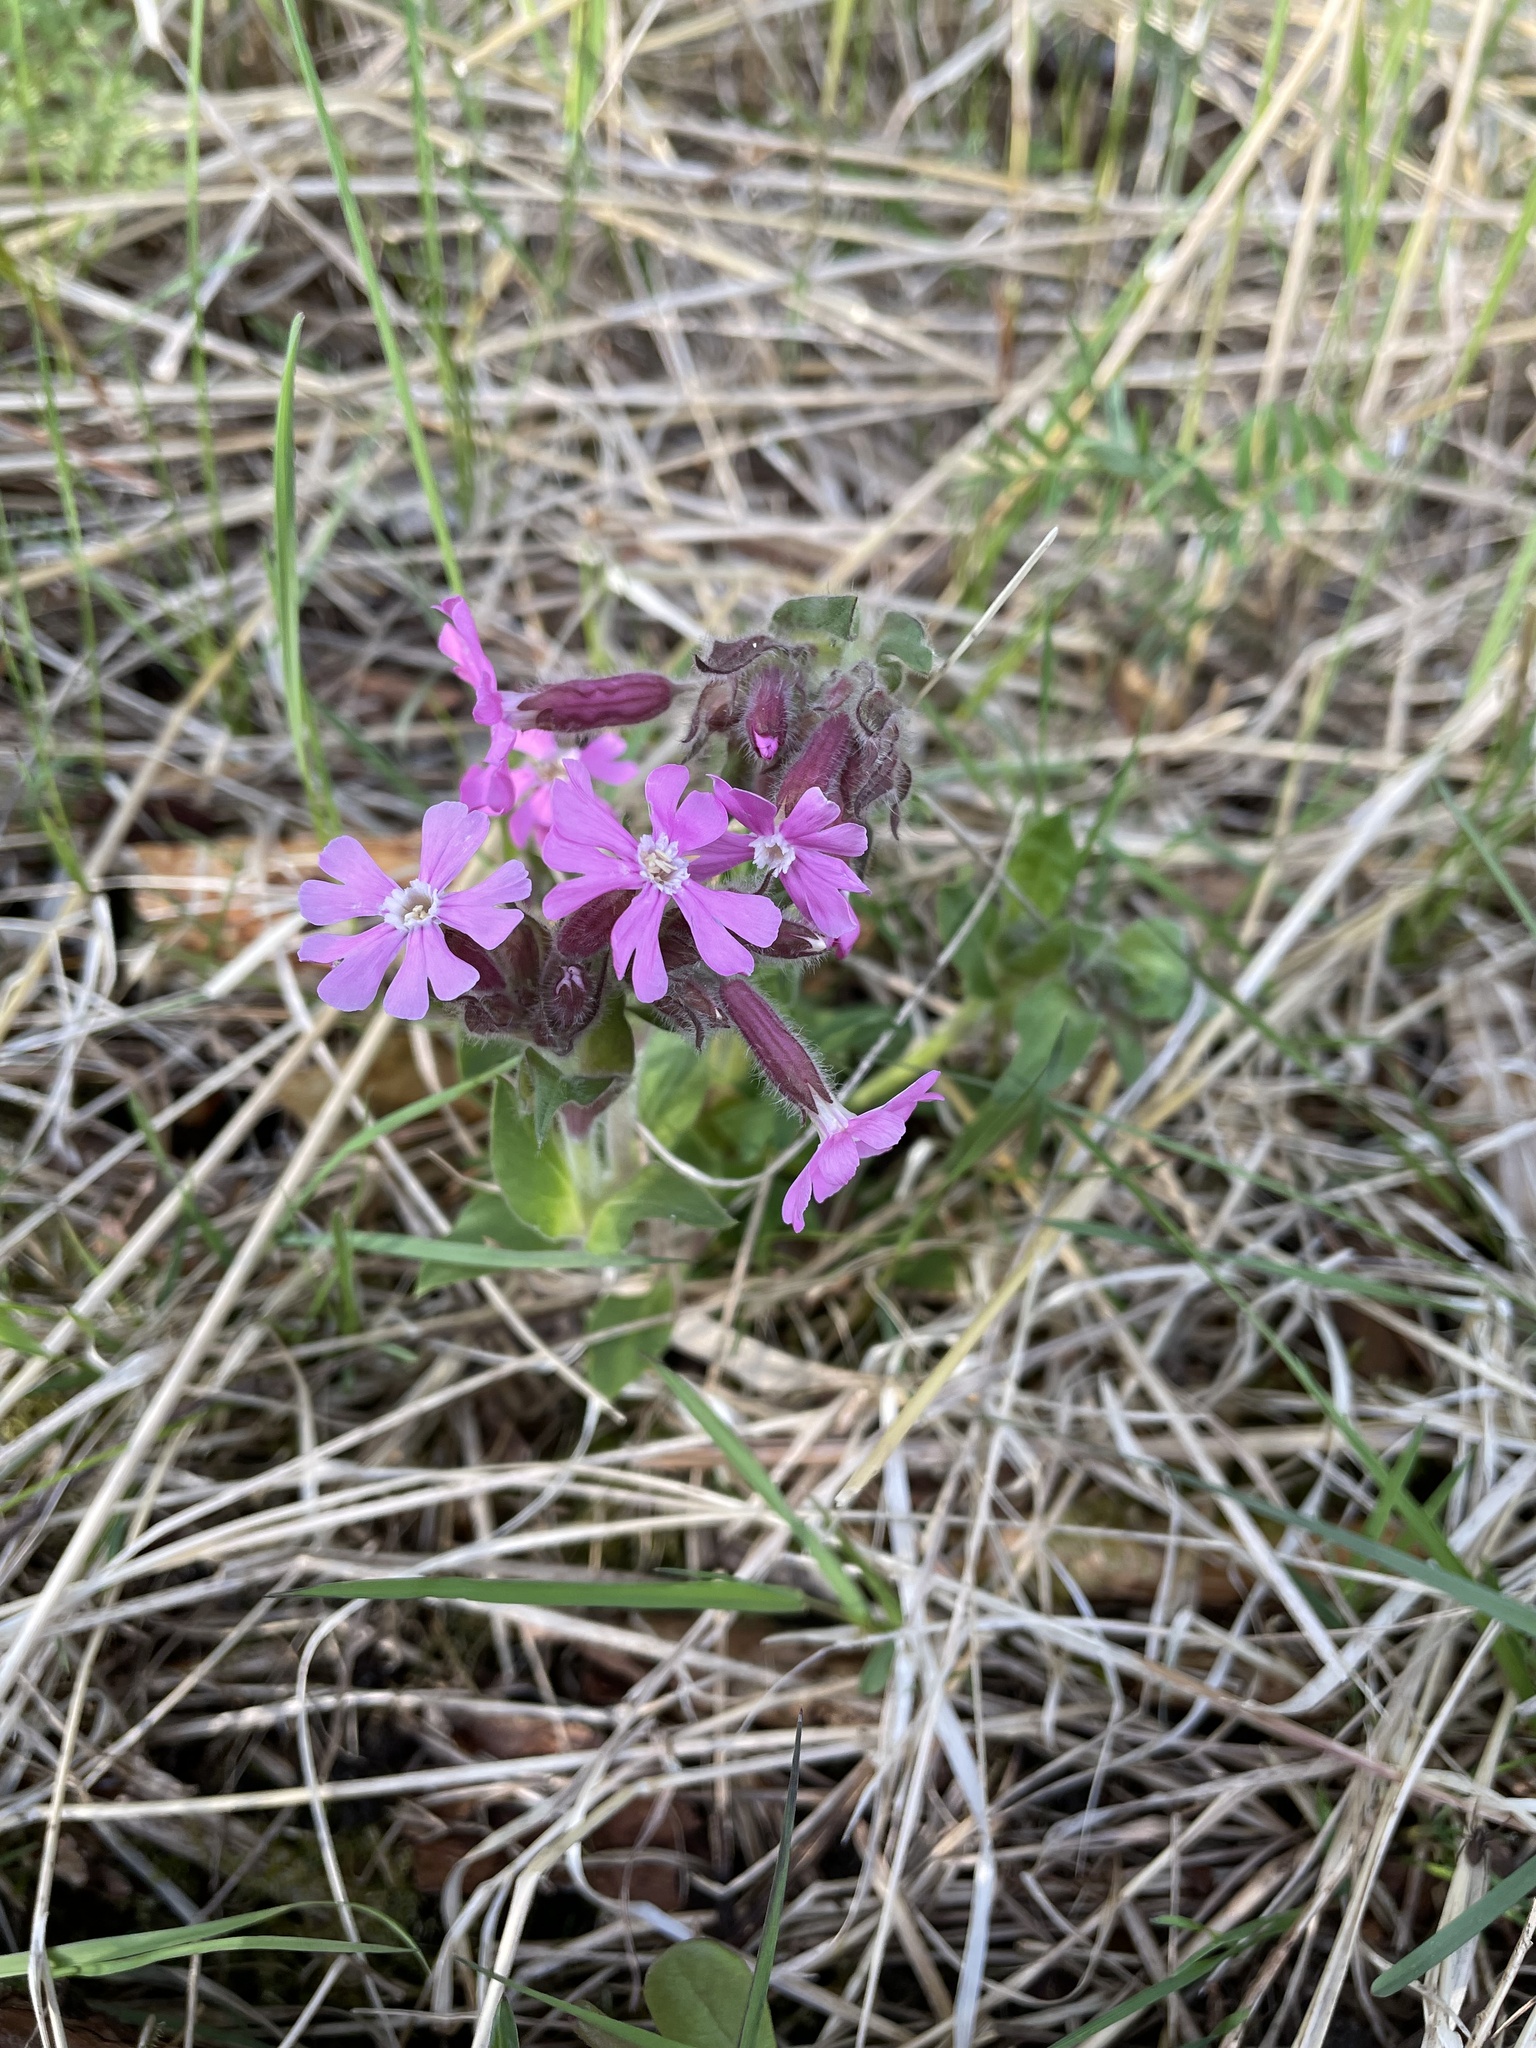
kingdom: Plantae
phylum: Tracheophyta
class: Magnoliopsida
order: Caryophyllales
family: Caryophyllaceae
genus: Silene
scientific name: Silene dioica
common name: Red campion
